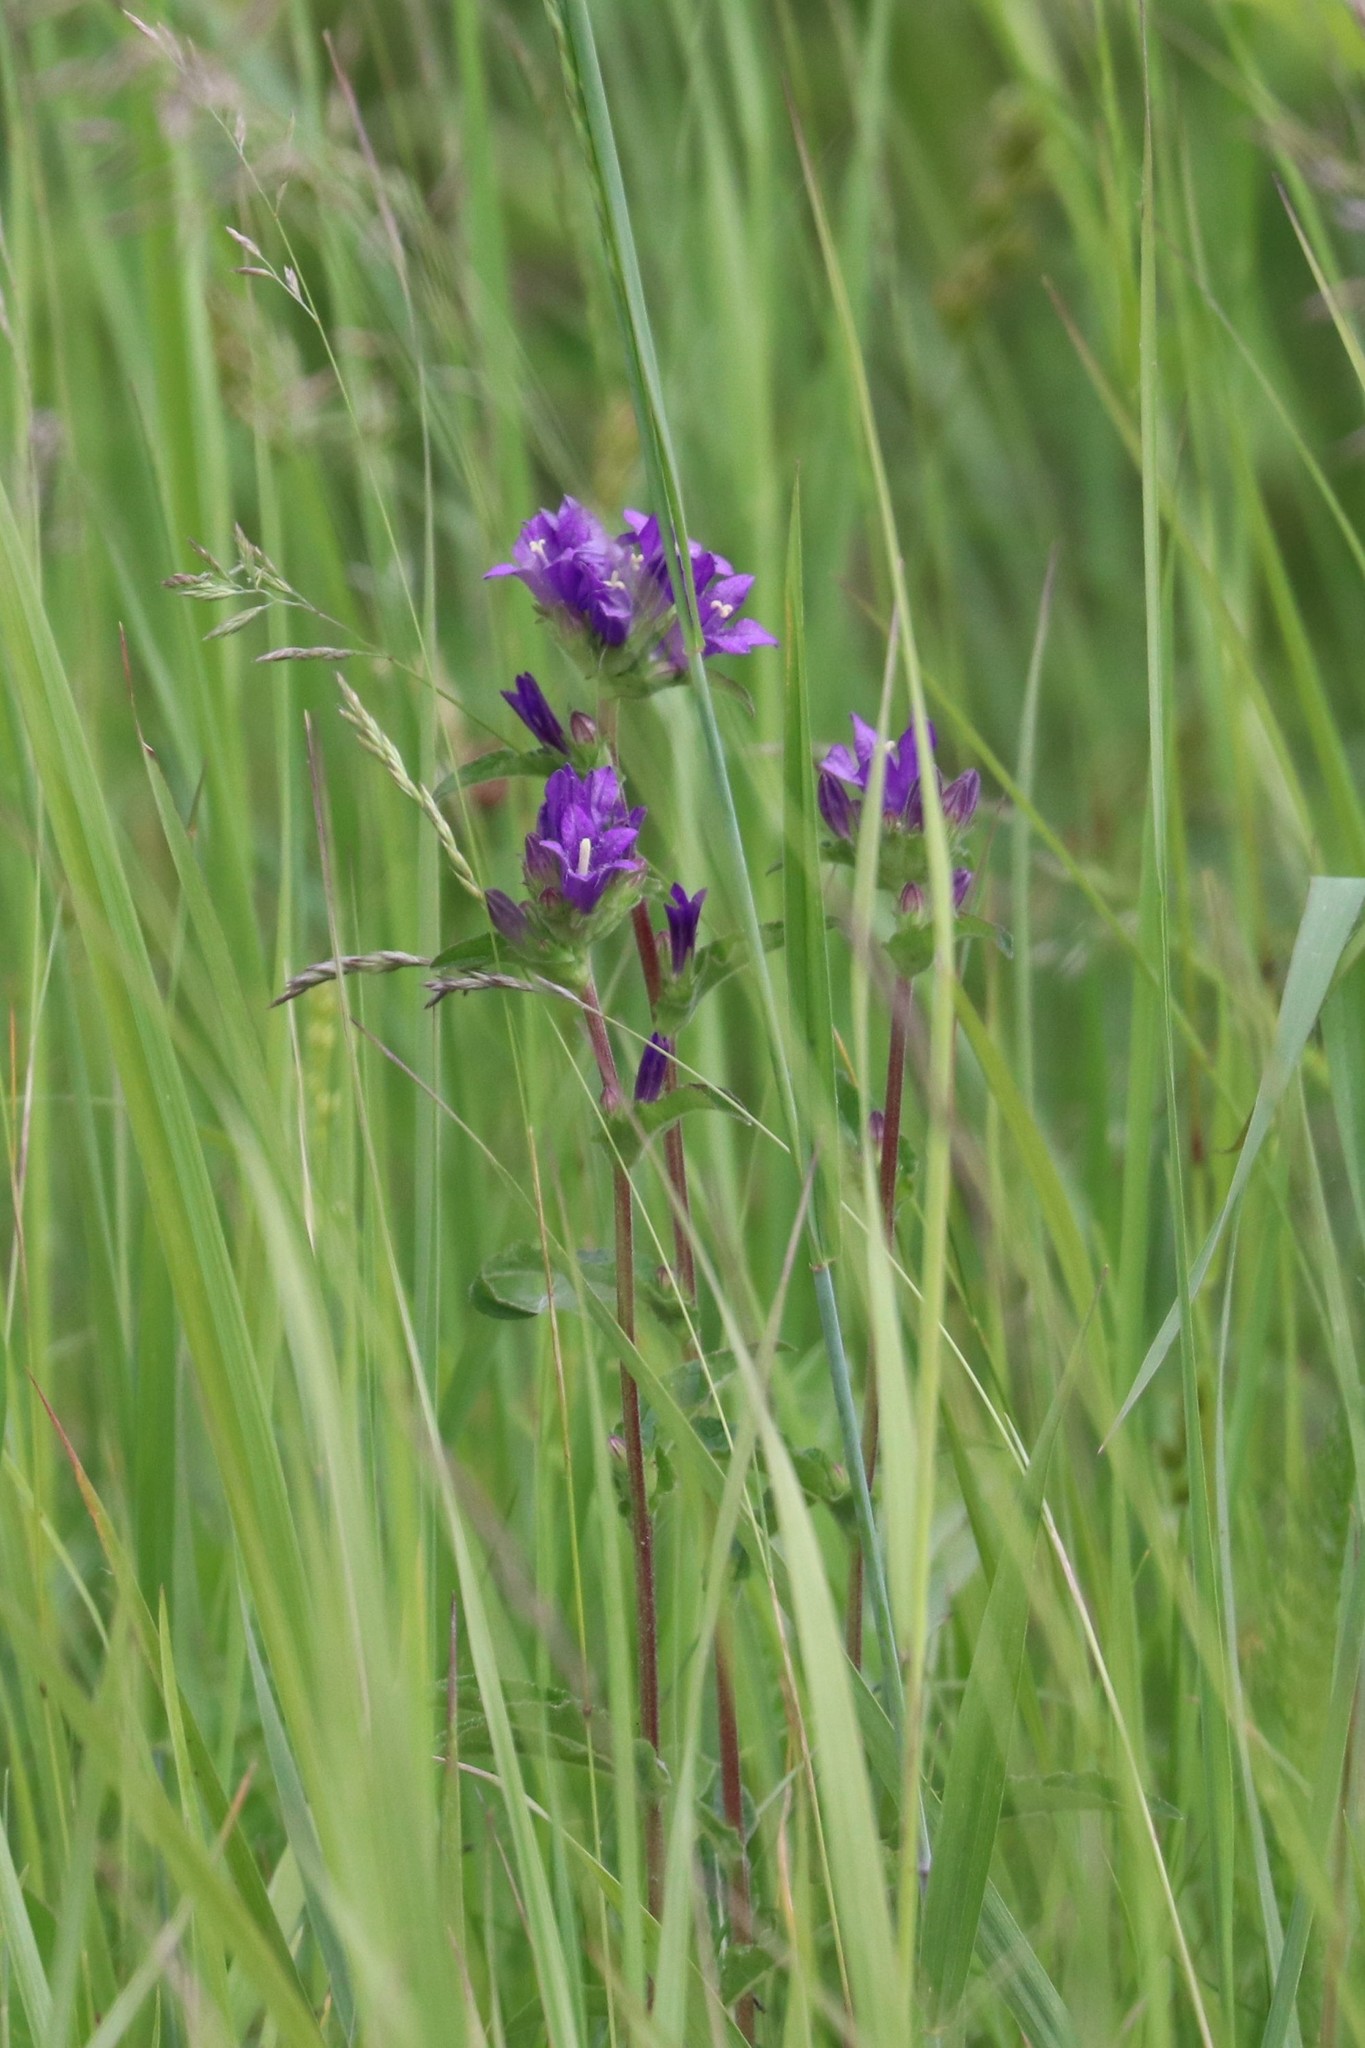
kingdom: Plantae
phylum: Tracheophyta
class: Magnoliopsida
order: Asterales
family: Campanulaceae
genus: Campanula
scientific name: Campanula glomerata
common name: Clustered bellflower
